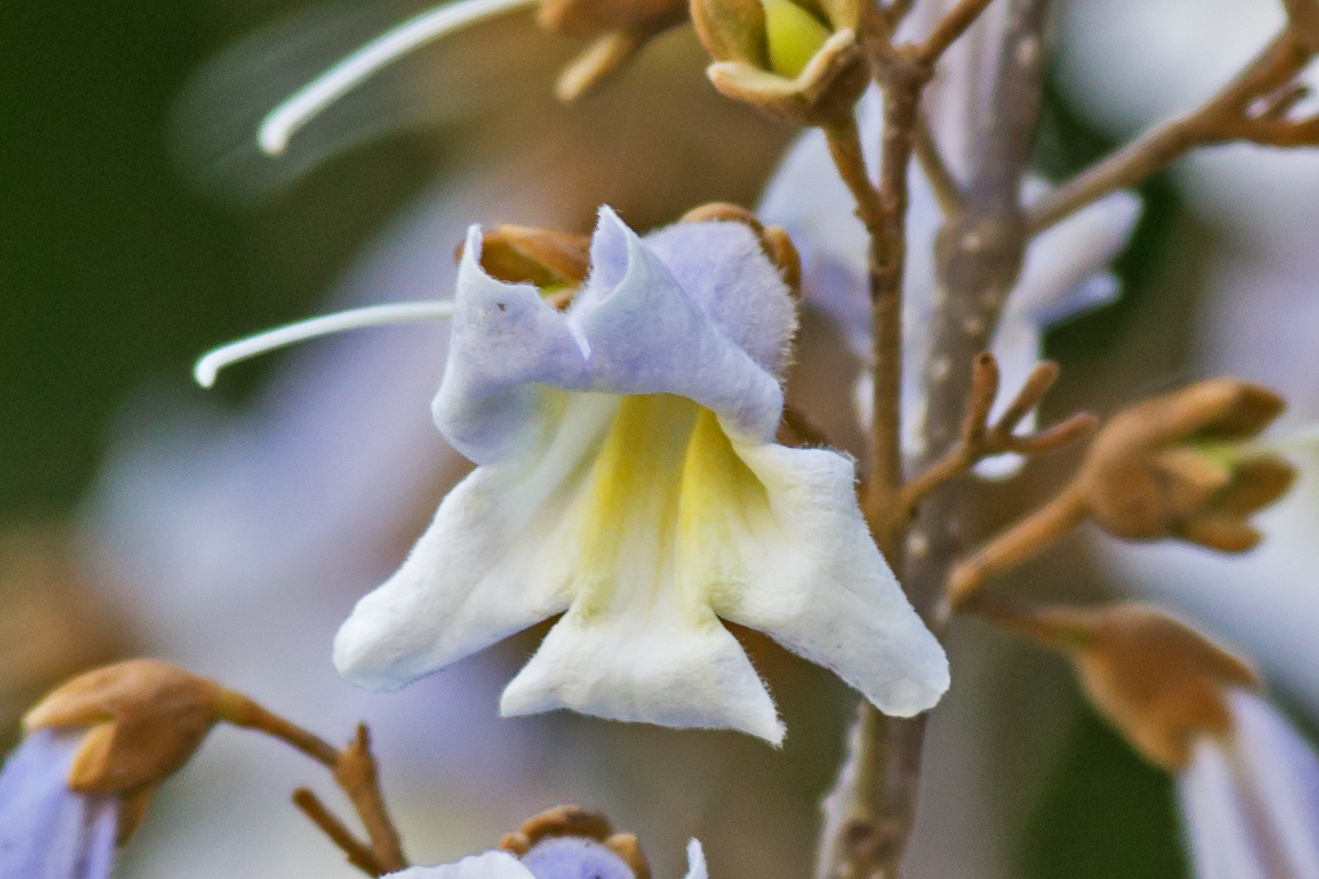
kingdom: Plantae
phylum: Tracheophyta
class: Magnoliopsida
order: Lamiales
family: Paulowniaceae
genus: Paulownia
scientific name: Paulownia tomentosa
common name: Foxglove-tree
